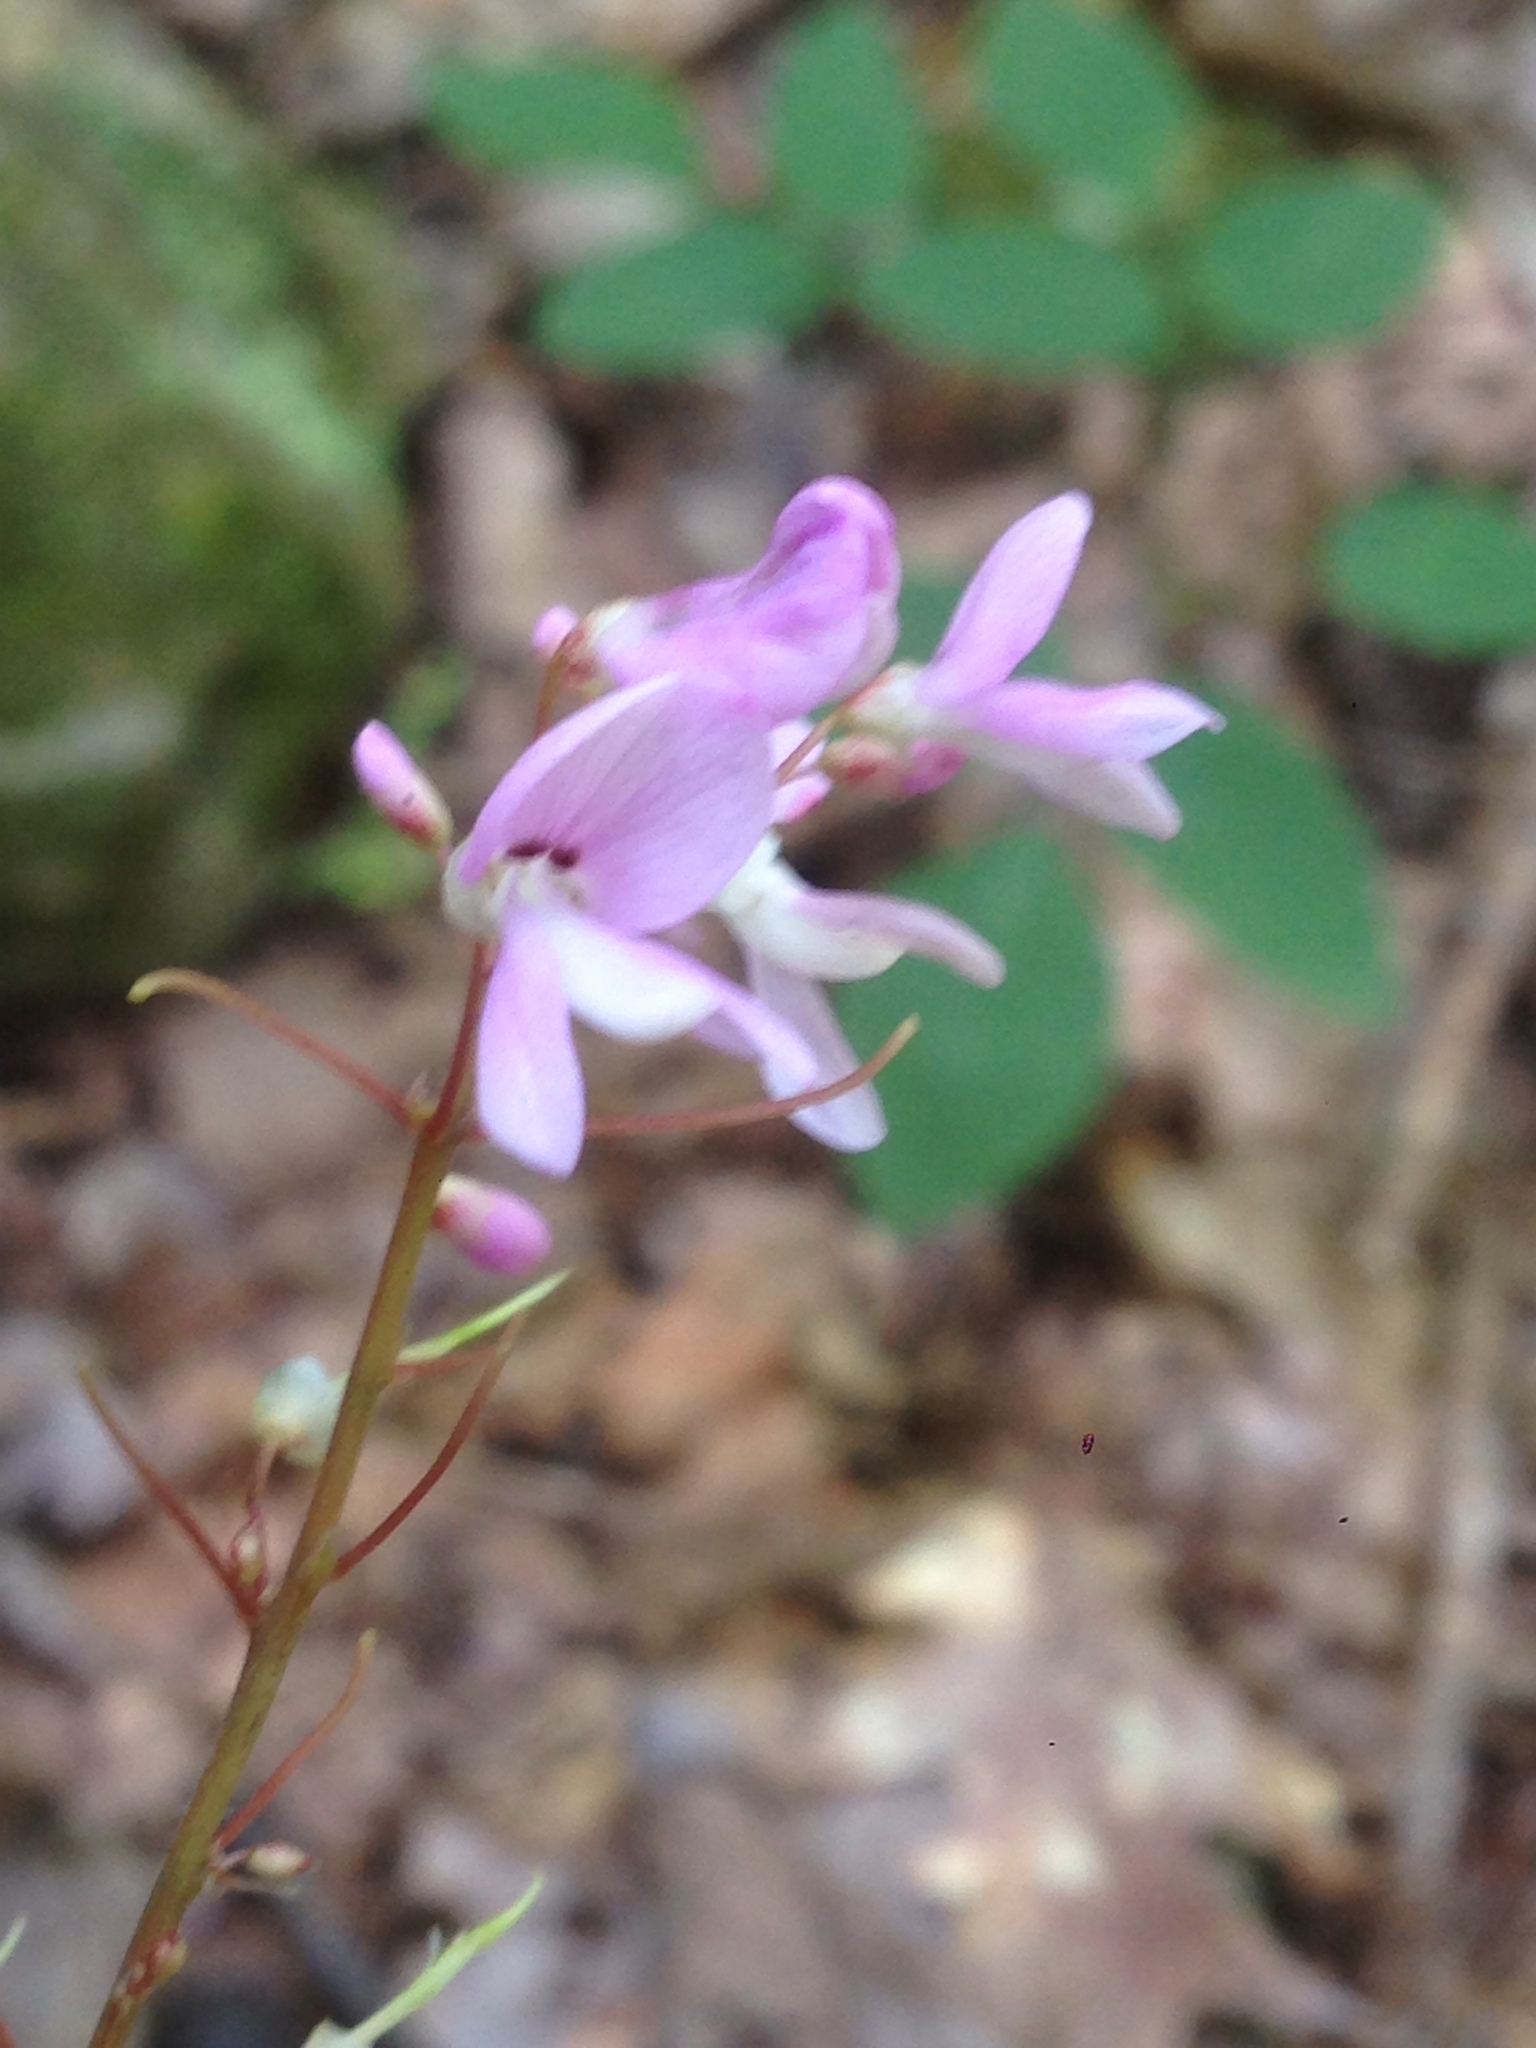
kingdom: Plantae
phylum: Tracheophyta
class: Magnoliopsida
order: Fabales
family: Fabaceae
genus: Hylodesmum
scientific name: Hylodesmum nudiflorum
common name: Bare-stemmed tick-trefoil
